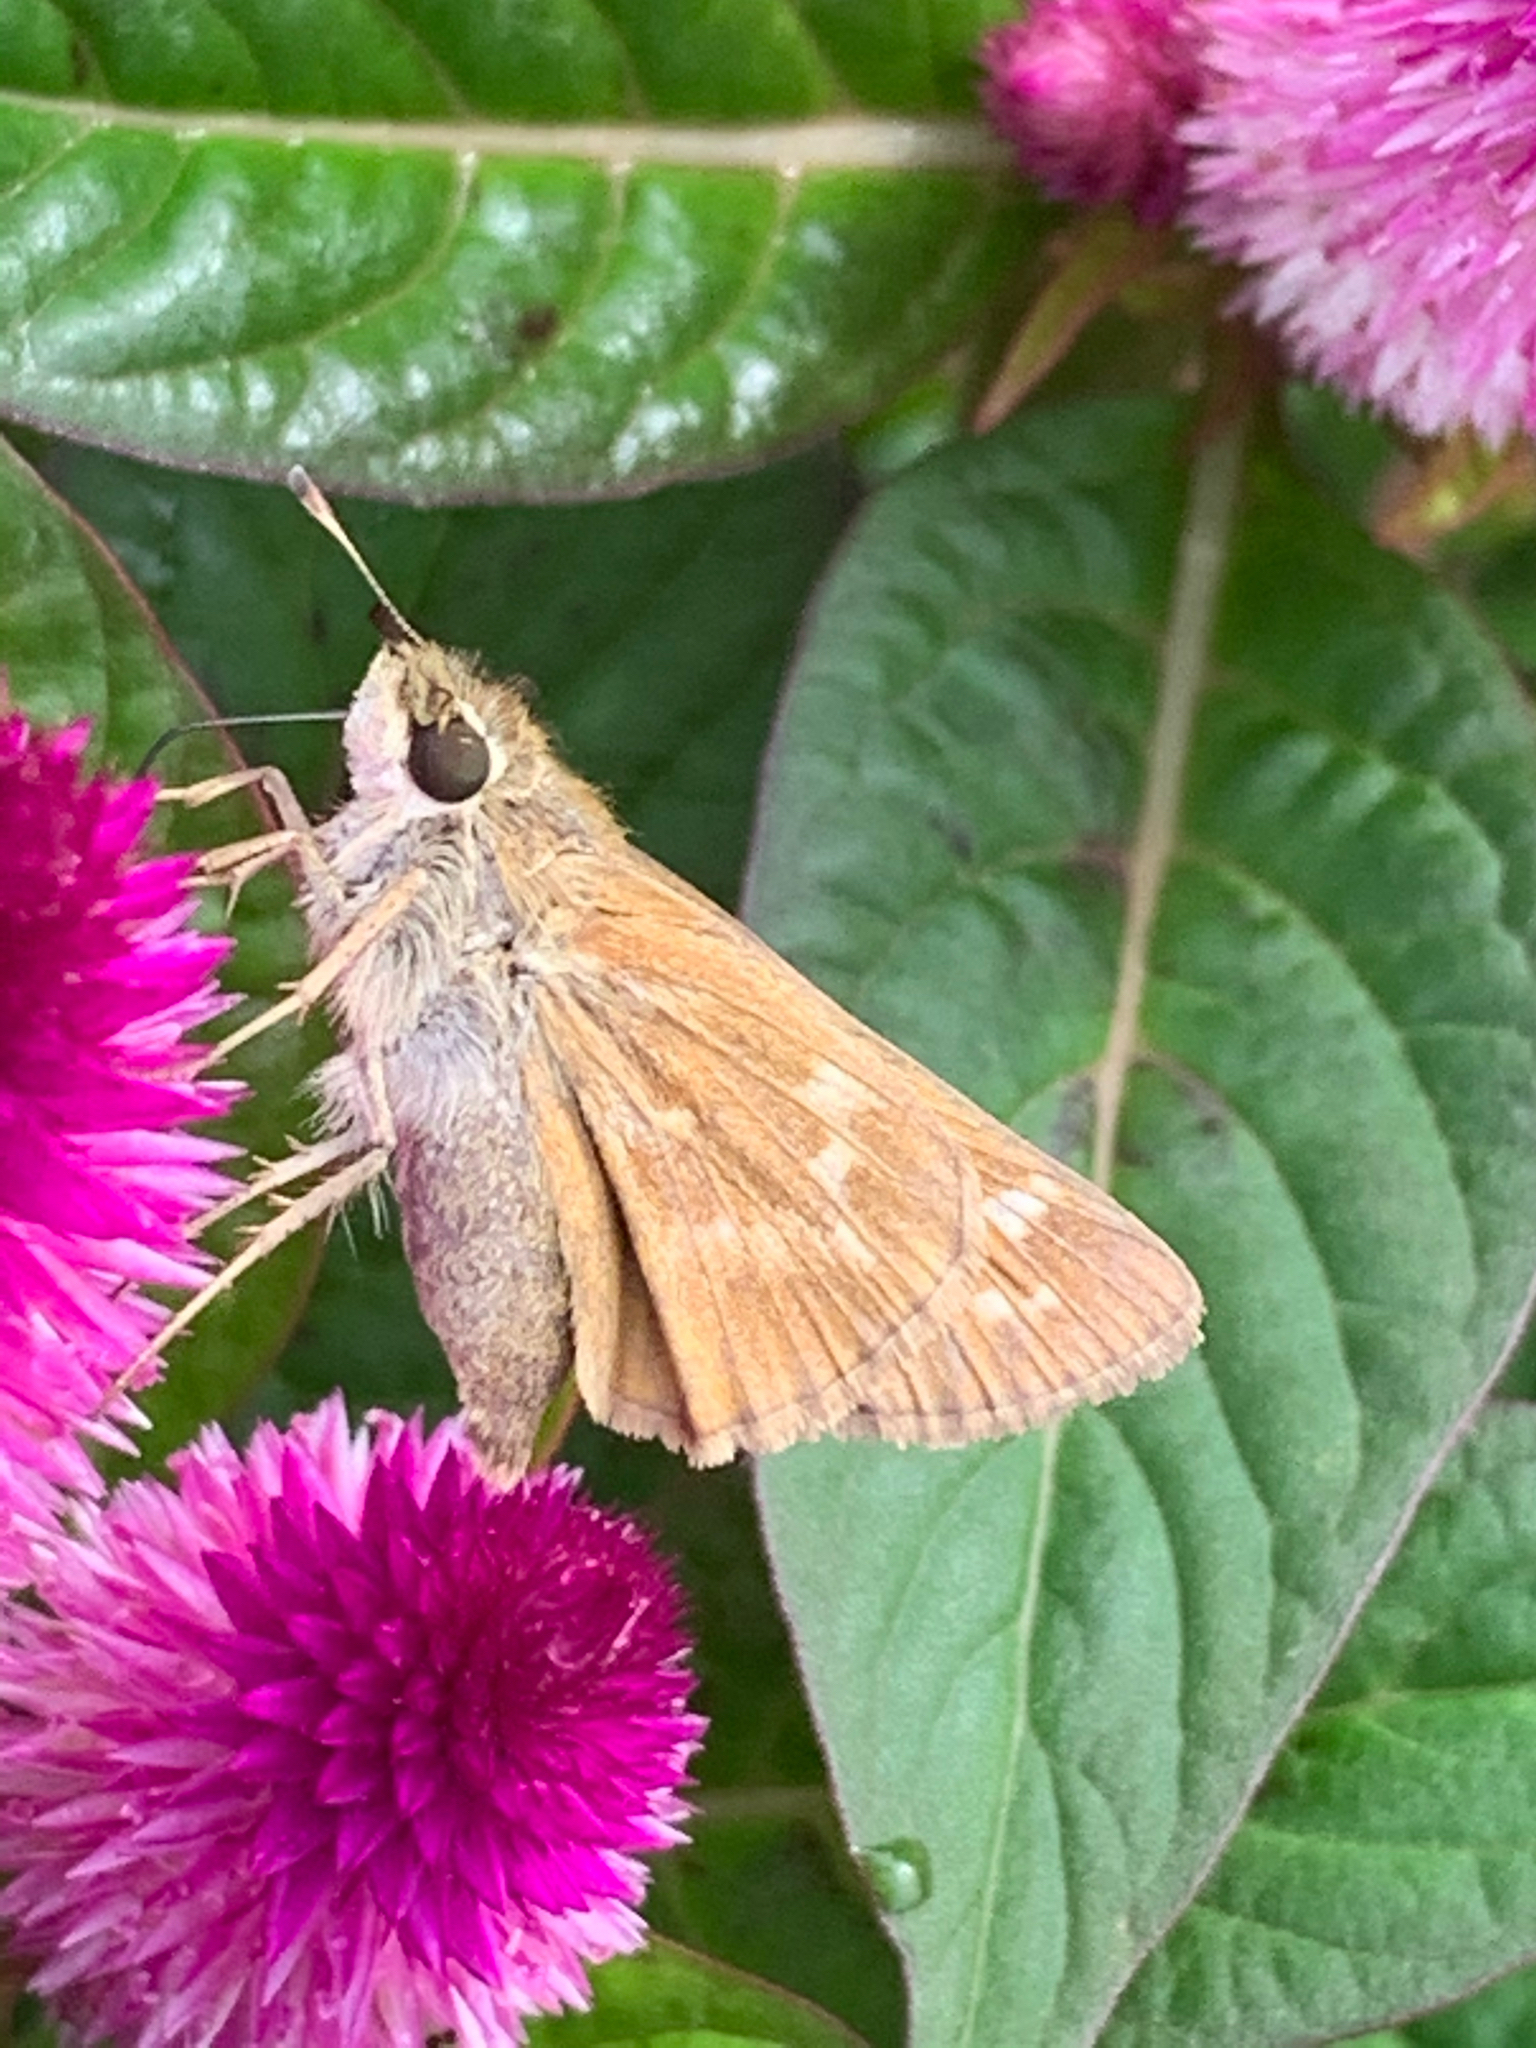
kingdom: Animalia
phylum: Arthropoda
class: Insecta
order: Lepidoptera
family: Hesperiidae
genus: Atalopedes
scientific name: Atalopedes
